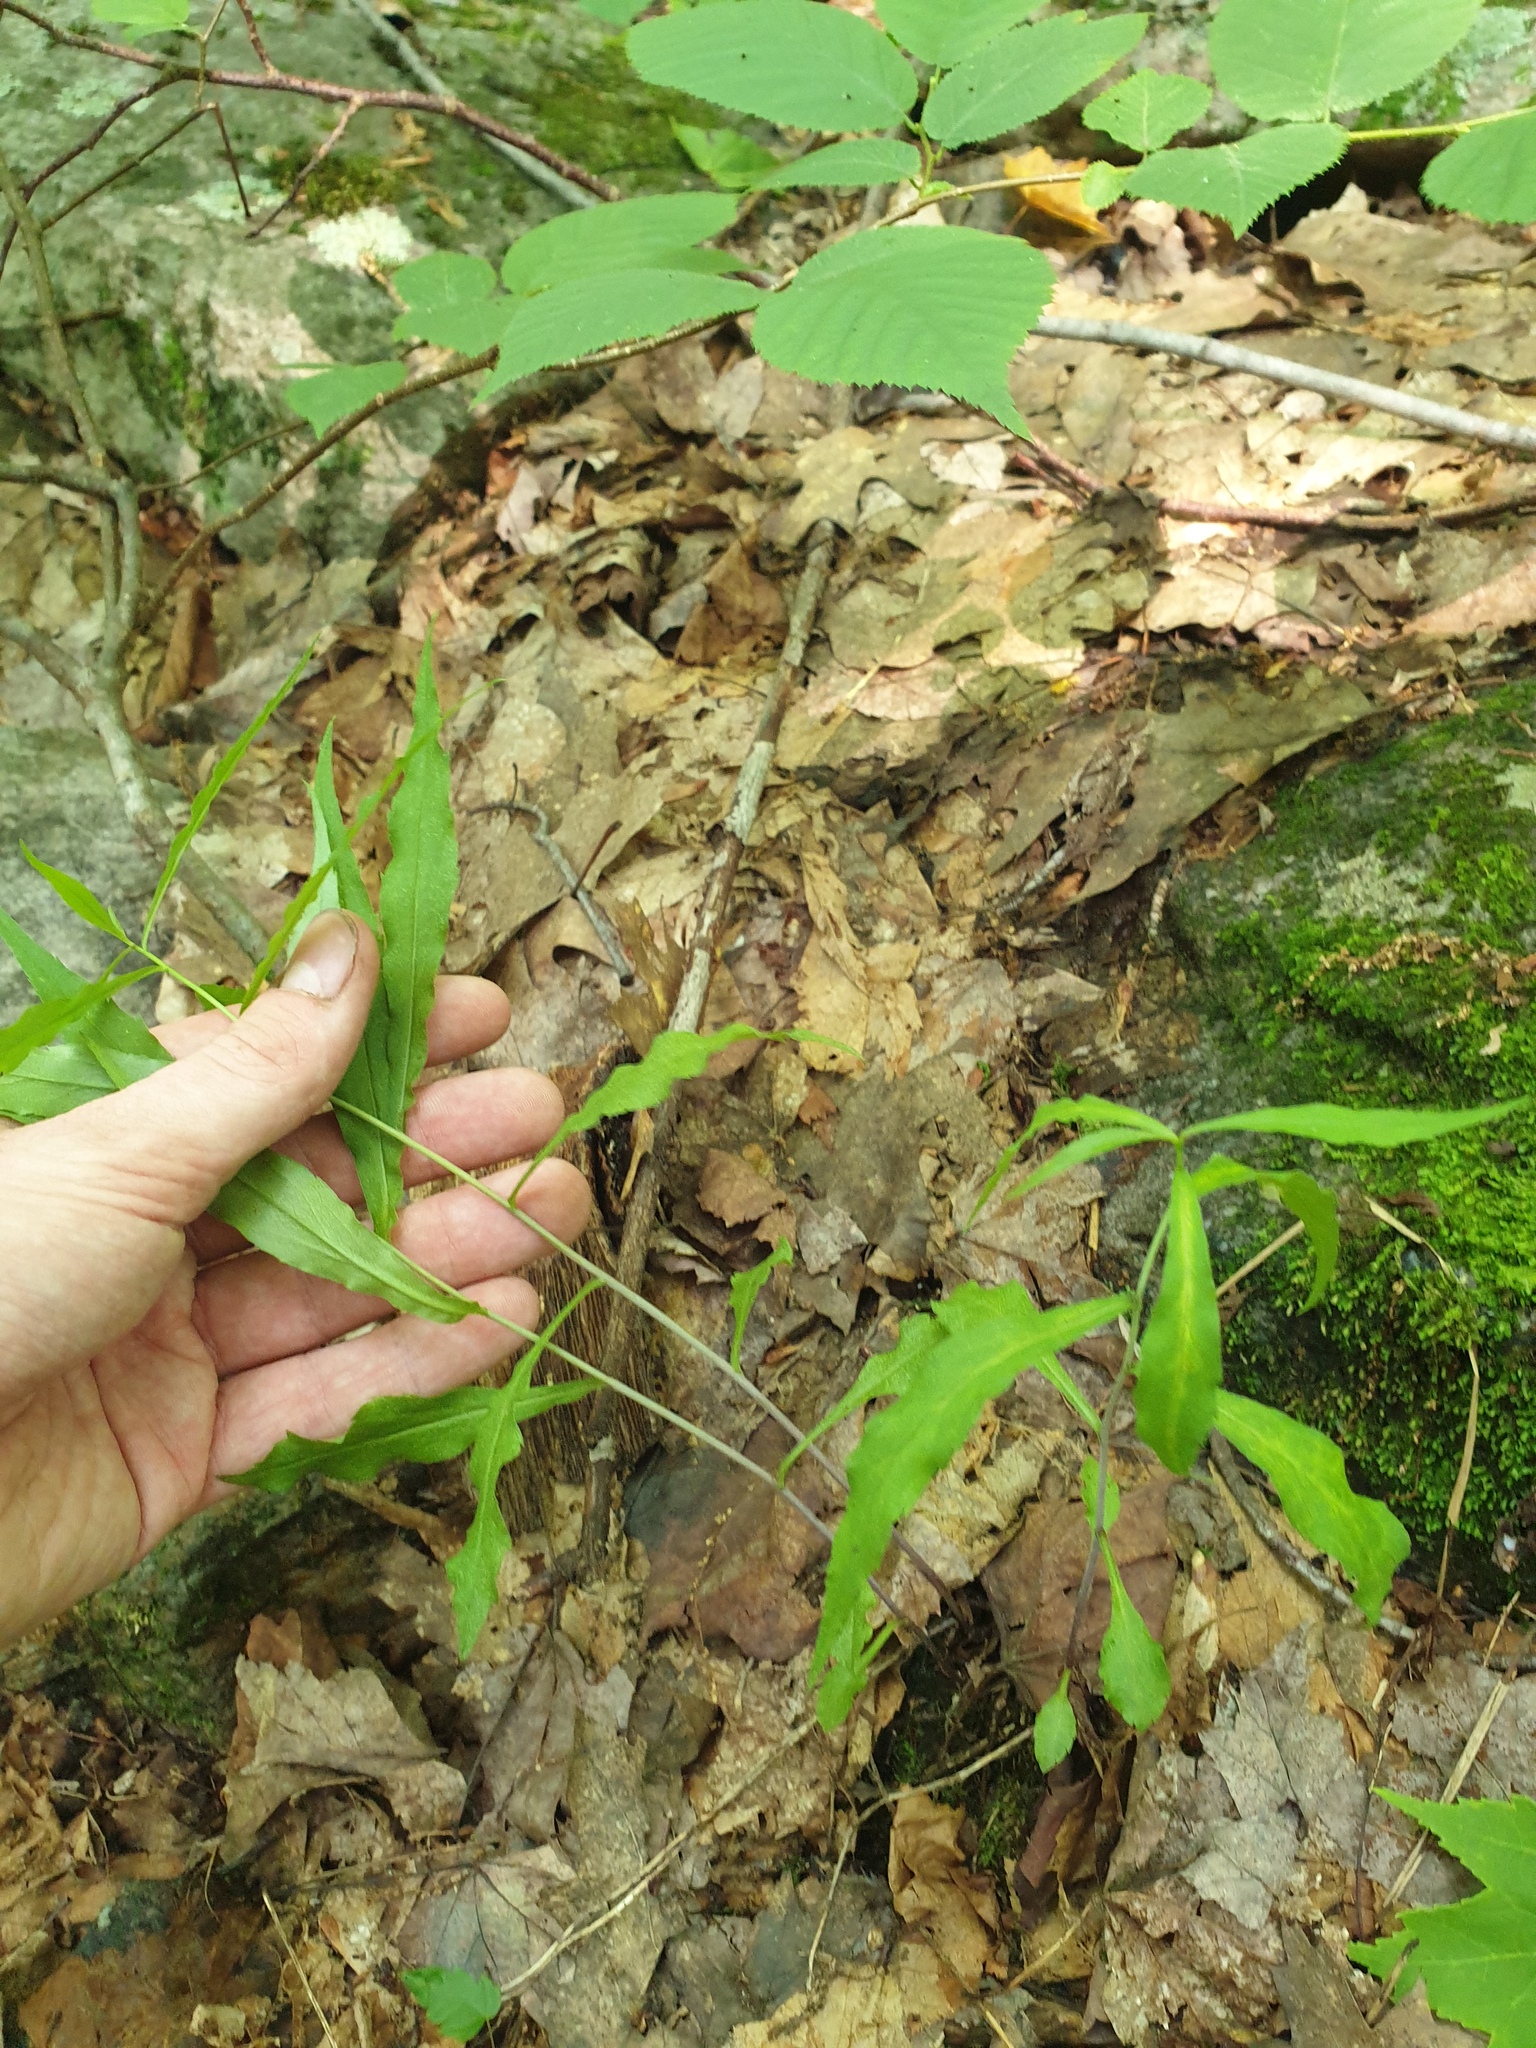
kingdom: Plantae
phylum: Tracheophyta
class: Magnoliopsida
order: Asterales
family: Asteraceae
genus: Solidago
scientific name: Solidago caesia
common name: Woodland goldenrod
